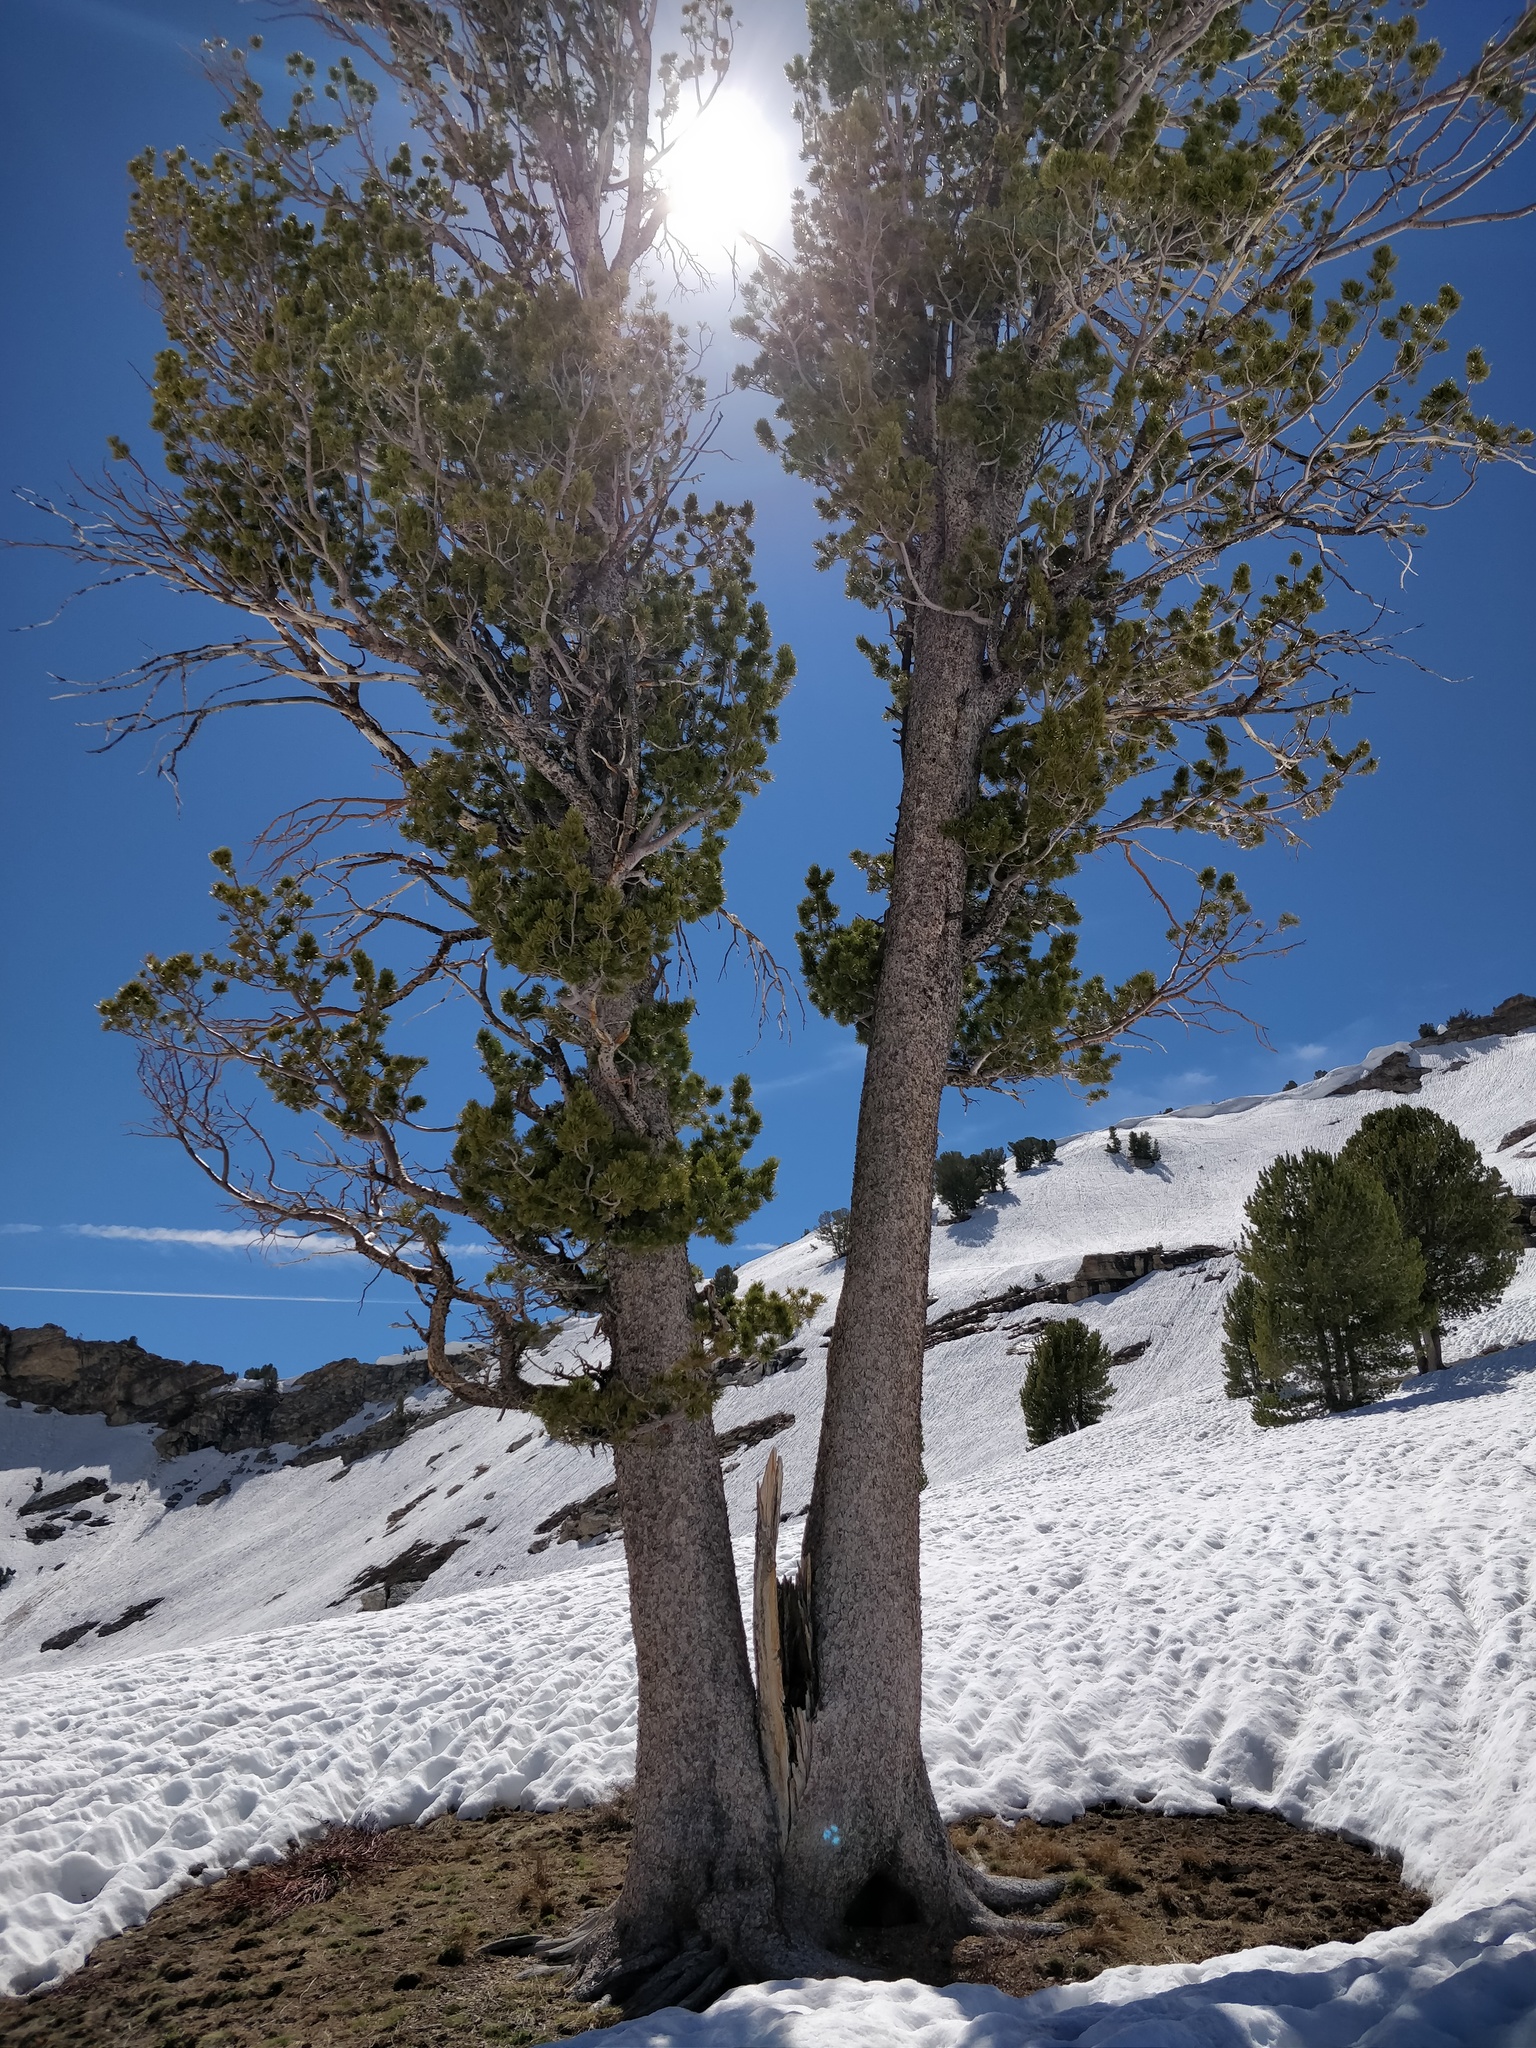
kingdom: Plantae
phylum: Tracheophyta
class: Pinopsida
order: Pinales
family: Pinaceae
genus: Pinus
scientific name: Pinus albicaulis
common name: Whitebark pine
